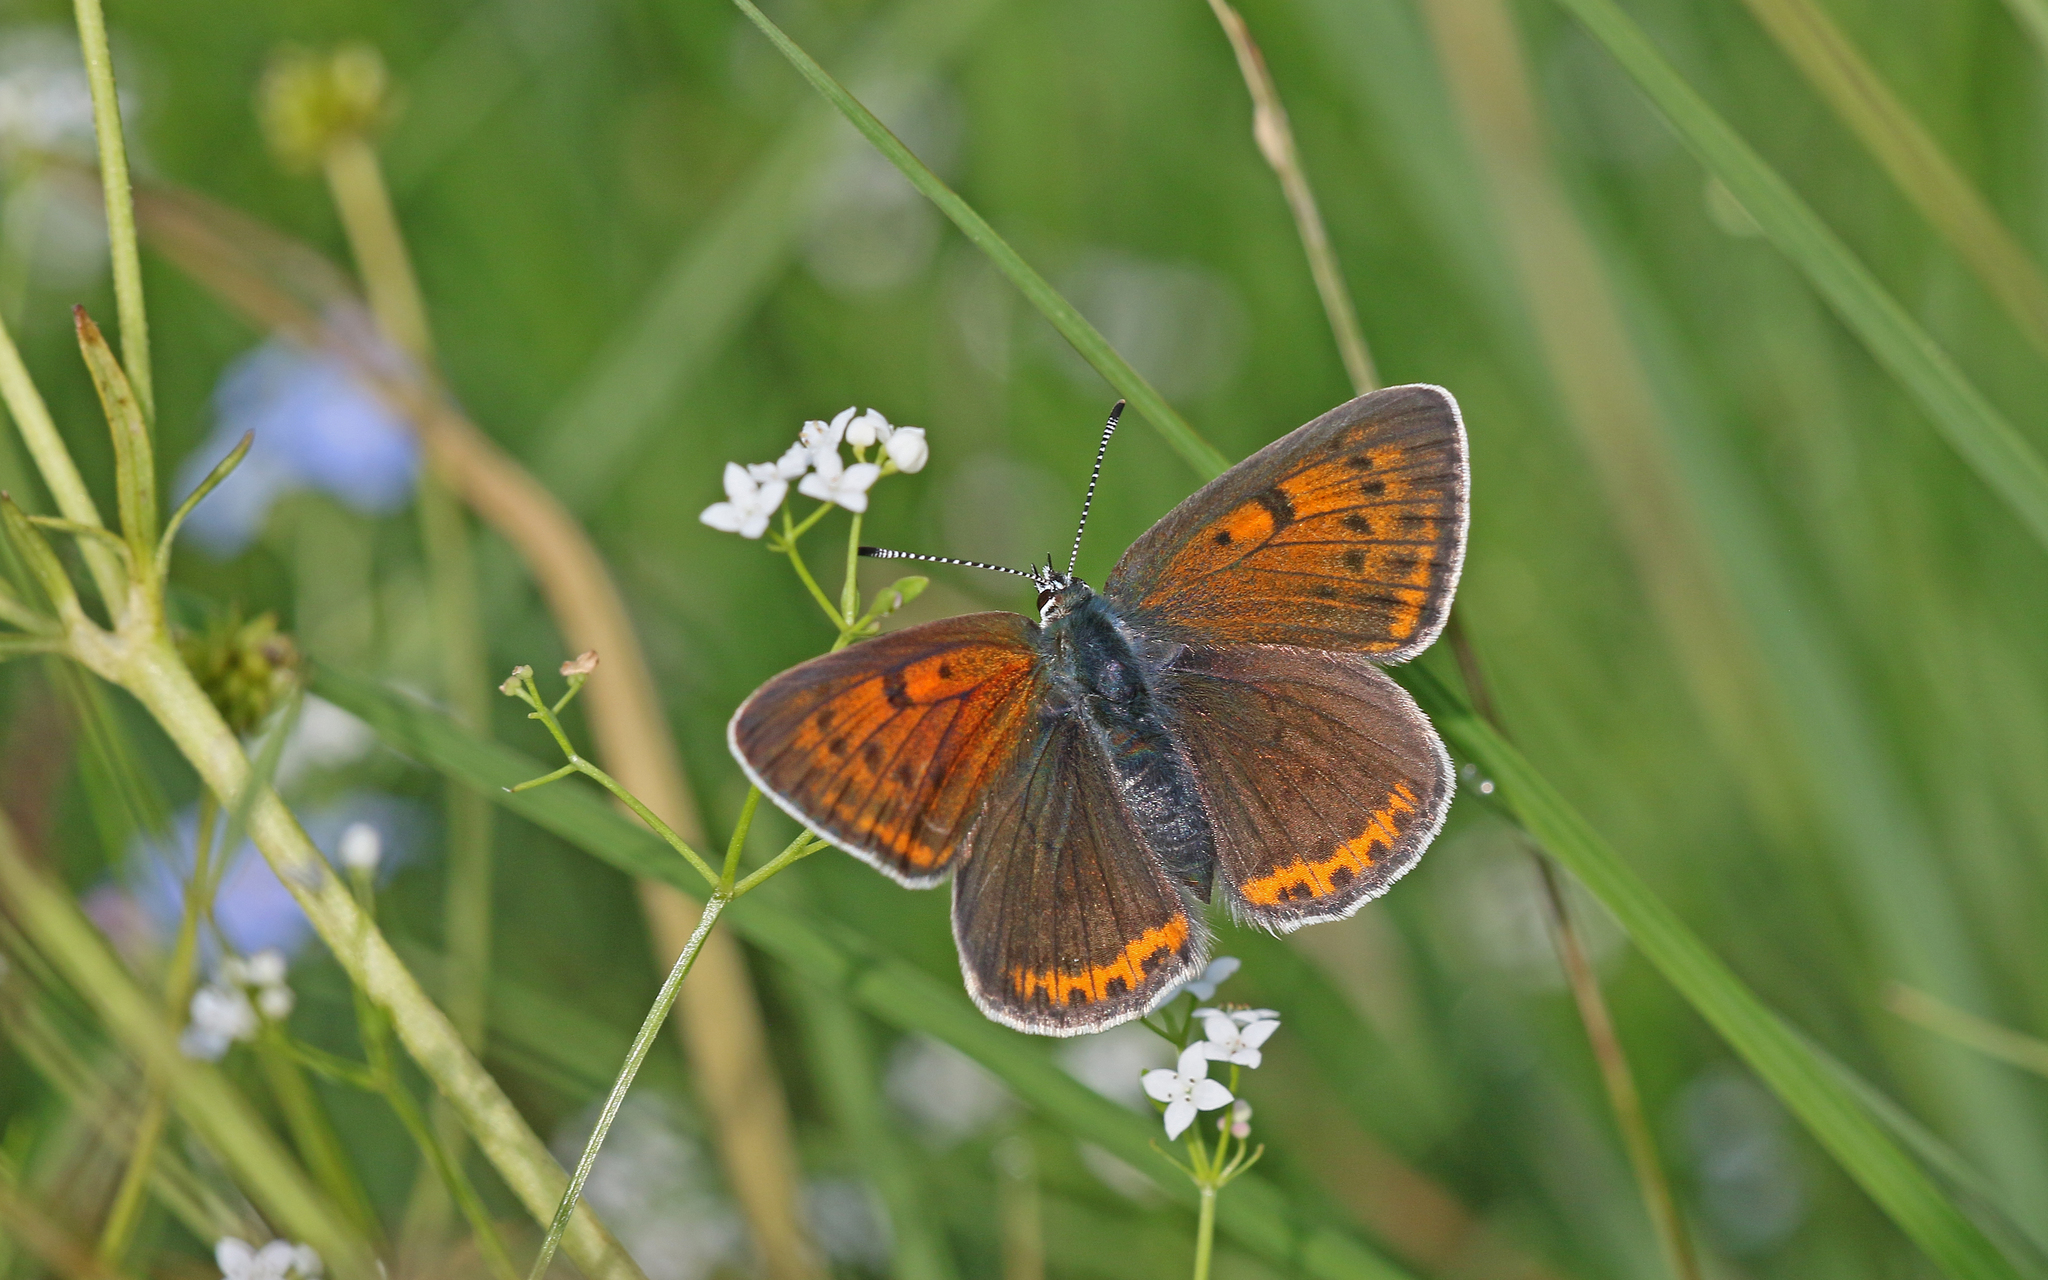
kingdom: Animalia
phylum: Arthropoda
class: Insecta
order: Lepidoptera
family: Lycaenidae
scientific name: Lycaenidae
